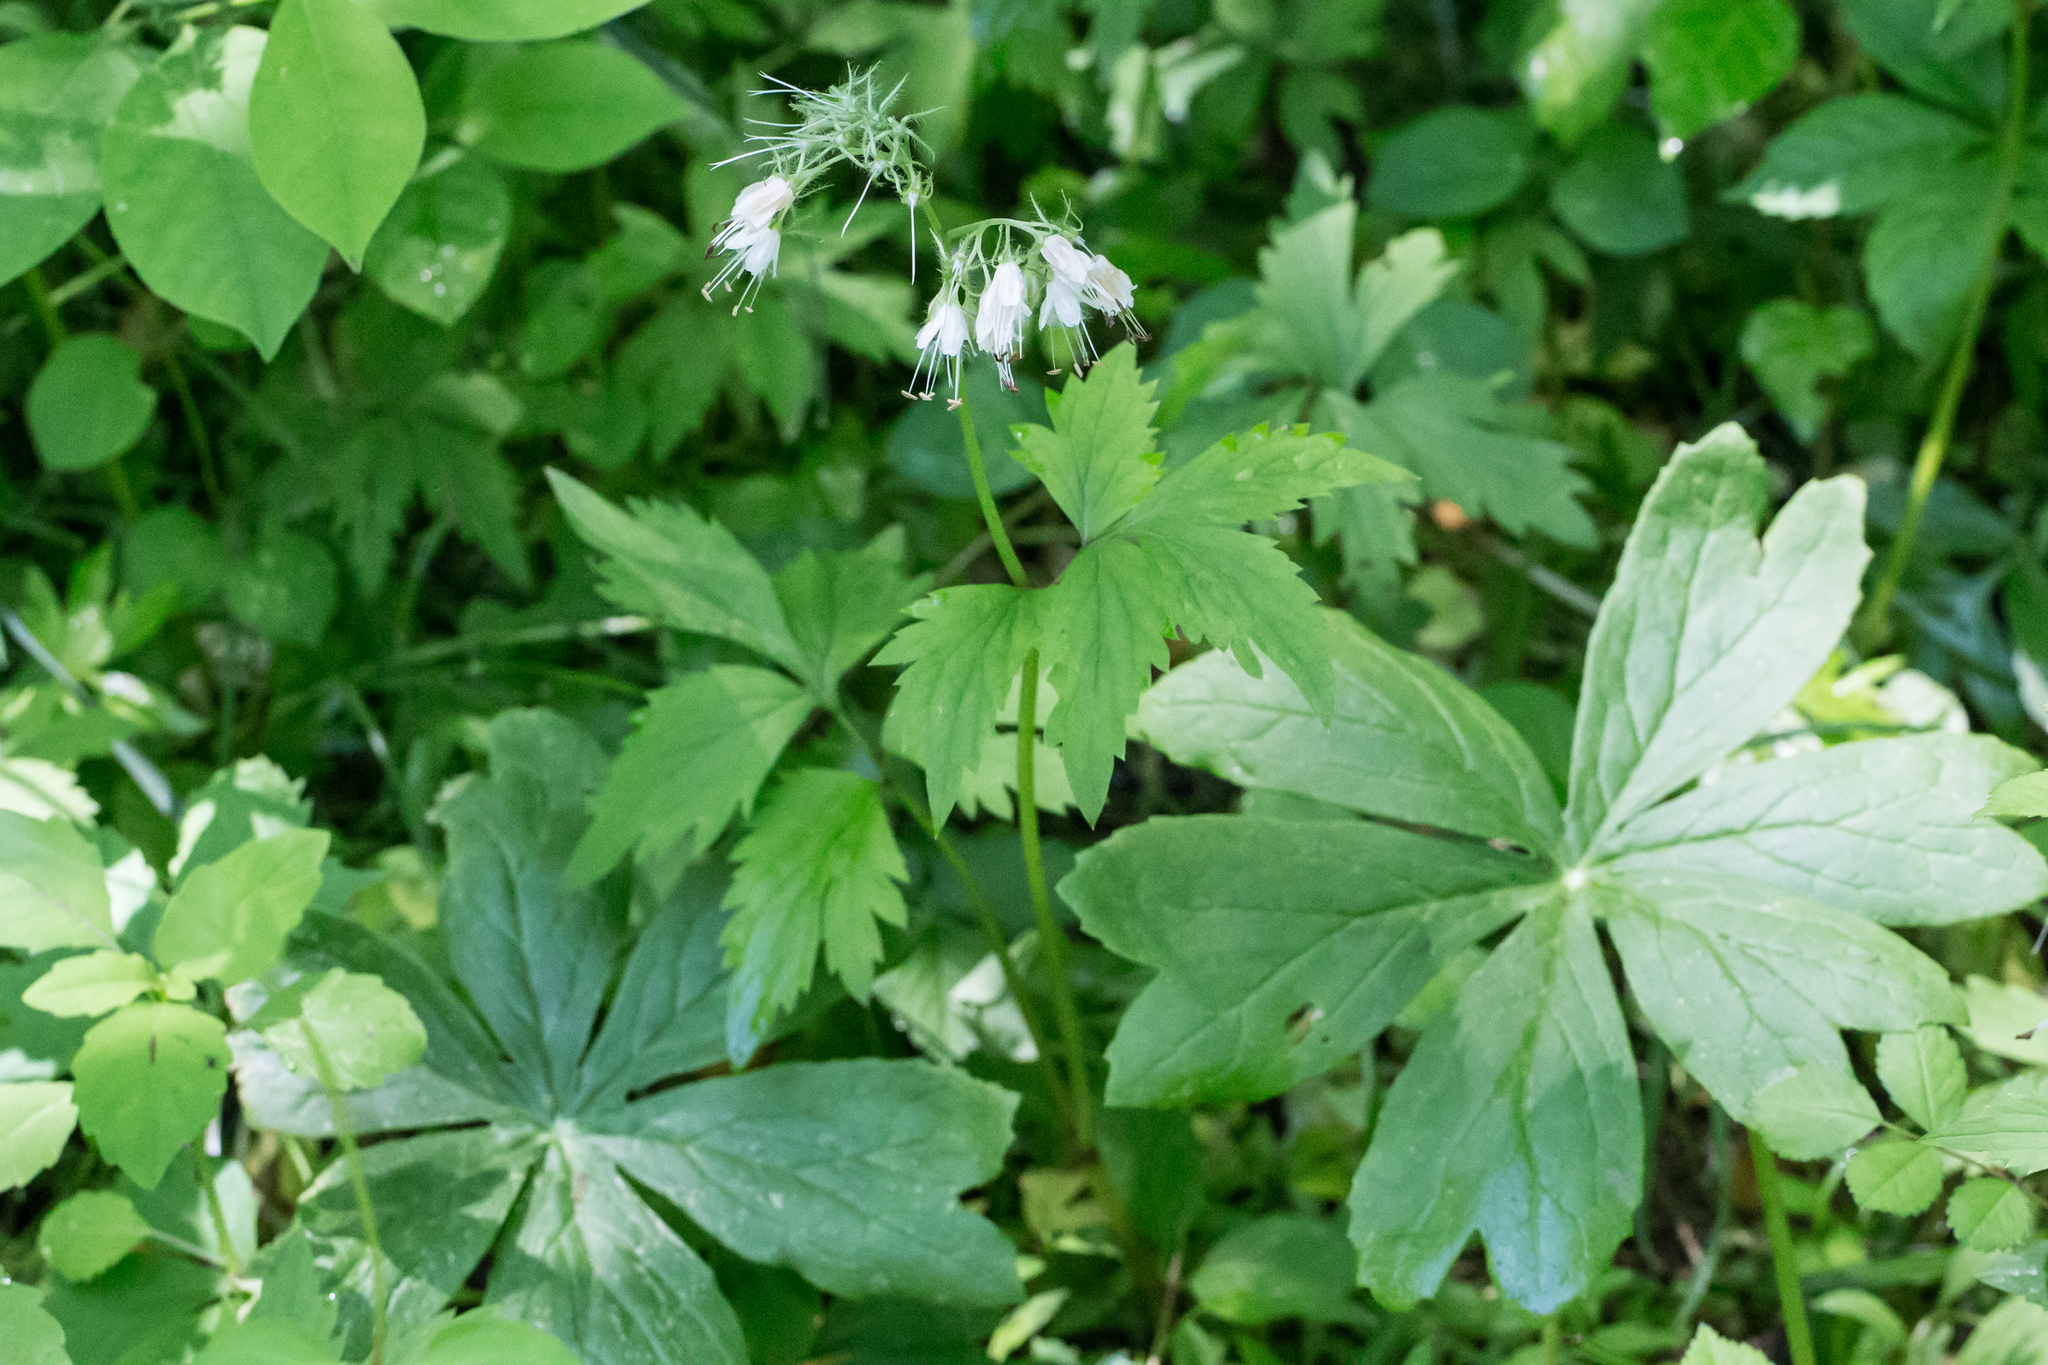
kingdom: Plantae
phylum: Tracheophyta
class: Magnoliopsida
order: Boraginales
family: Hydrophyllaceae
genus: Hydrophyllum
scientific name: Hydrophyllum virginianum
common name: Virginia waterleaf
